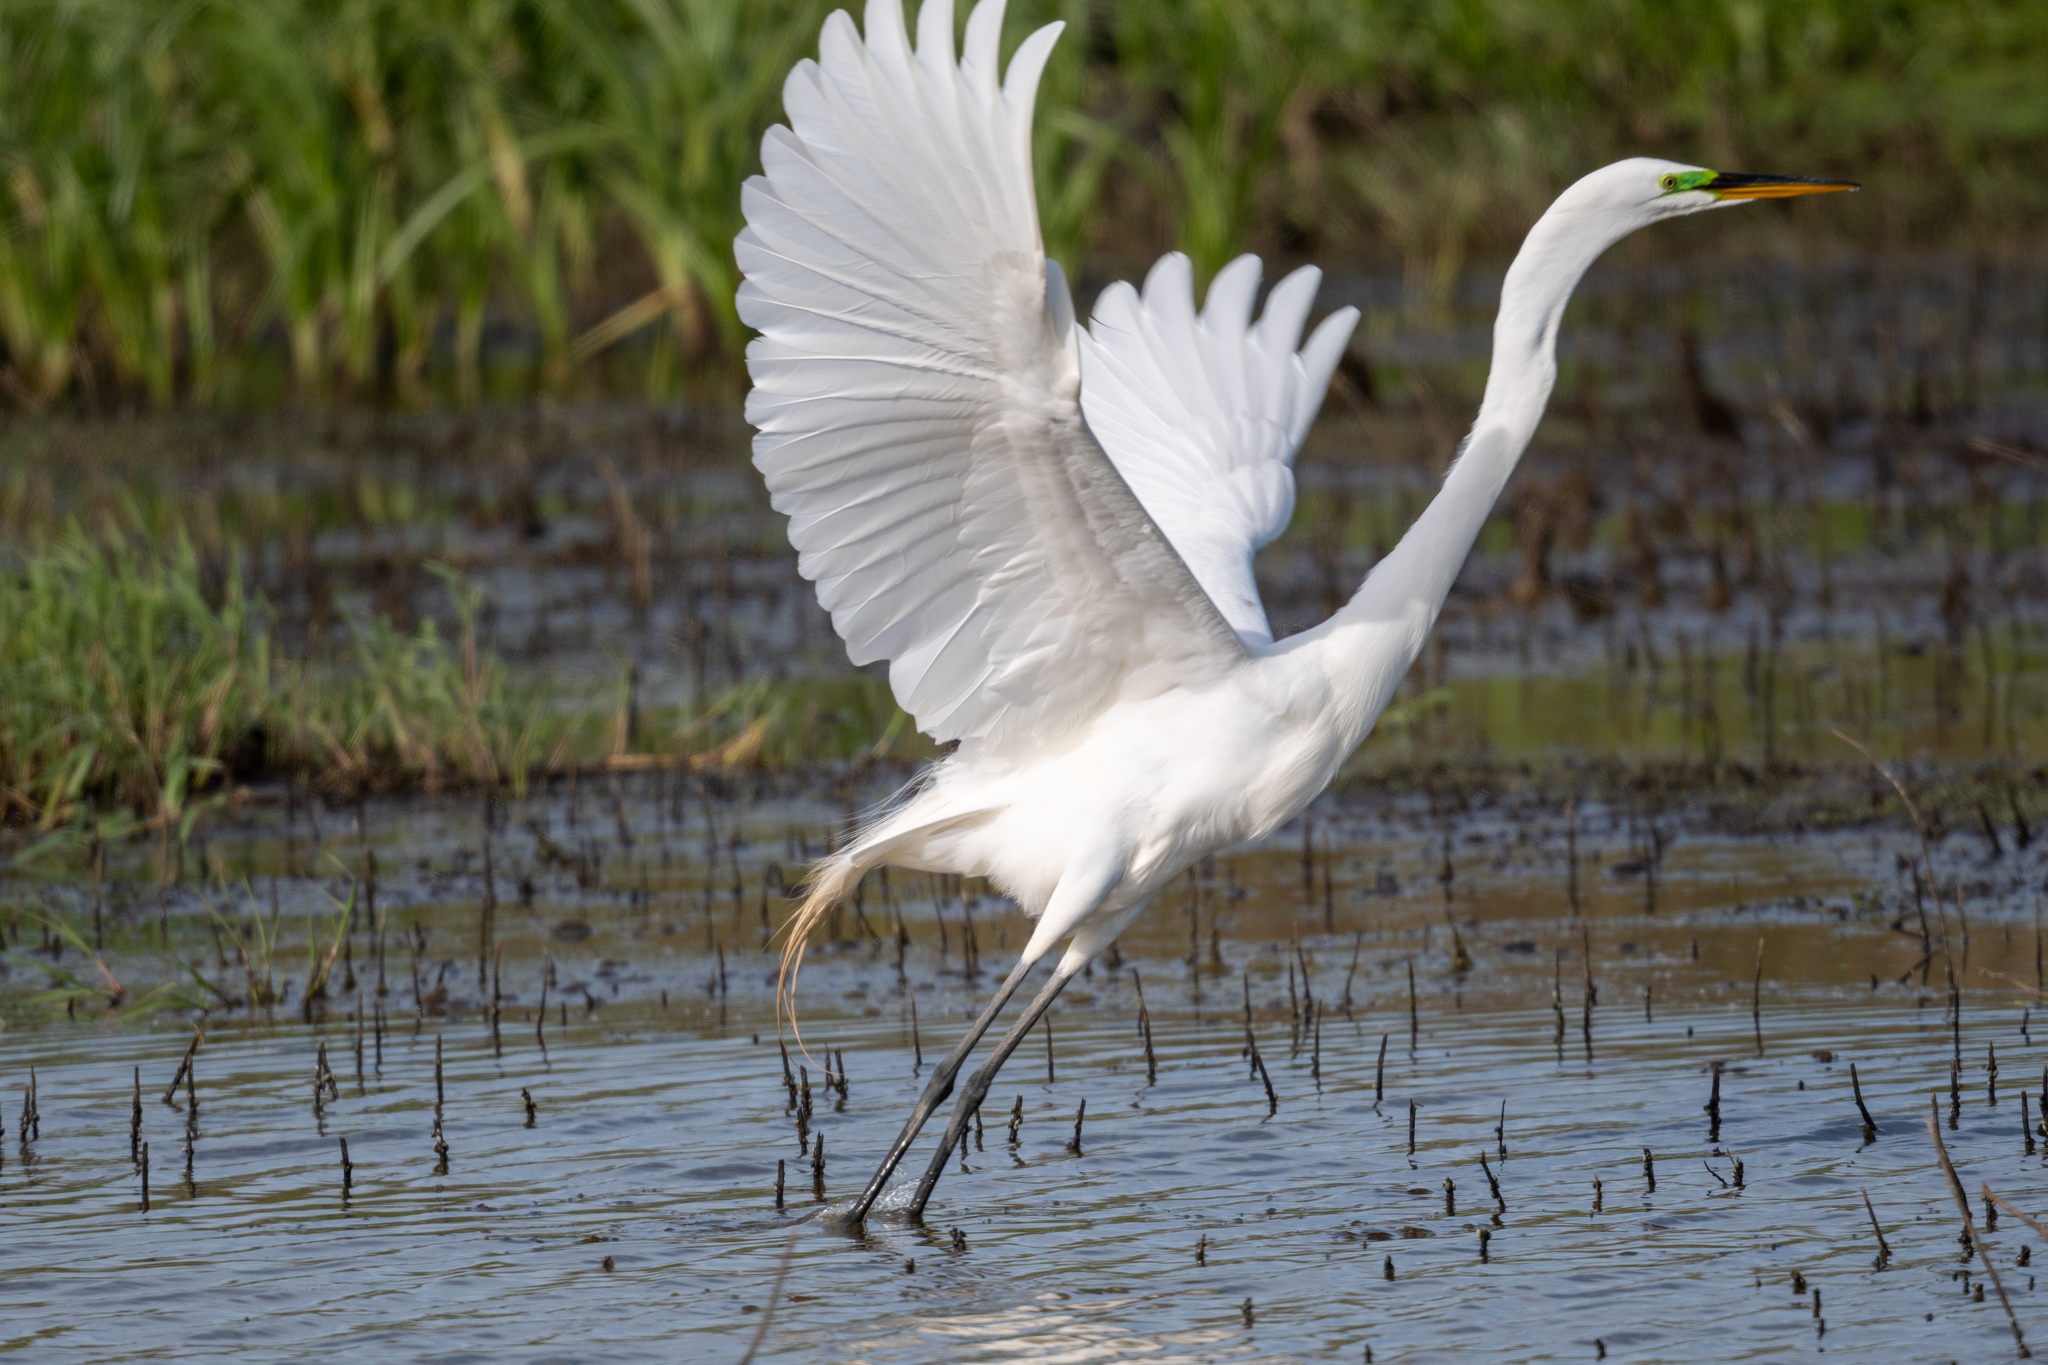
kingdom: Animalia
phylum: Chordata
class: Aves
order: Pelecaniformes
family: Ardeidae
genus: Ardea
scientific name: Ardea alba
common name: Great egret
